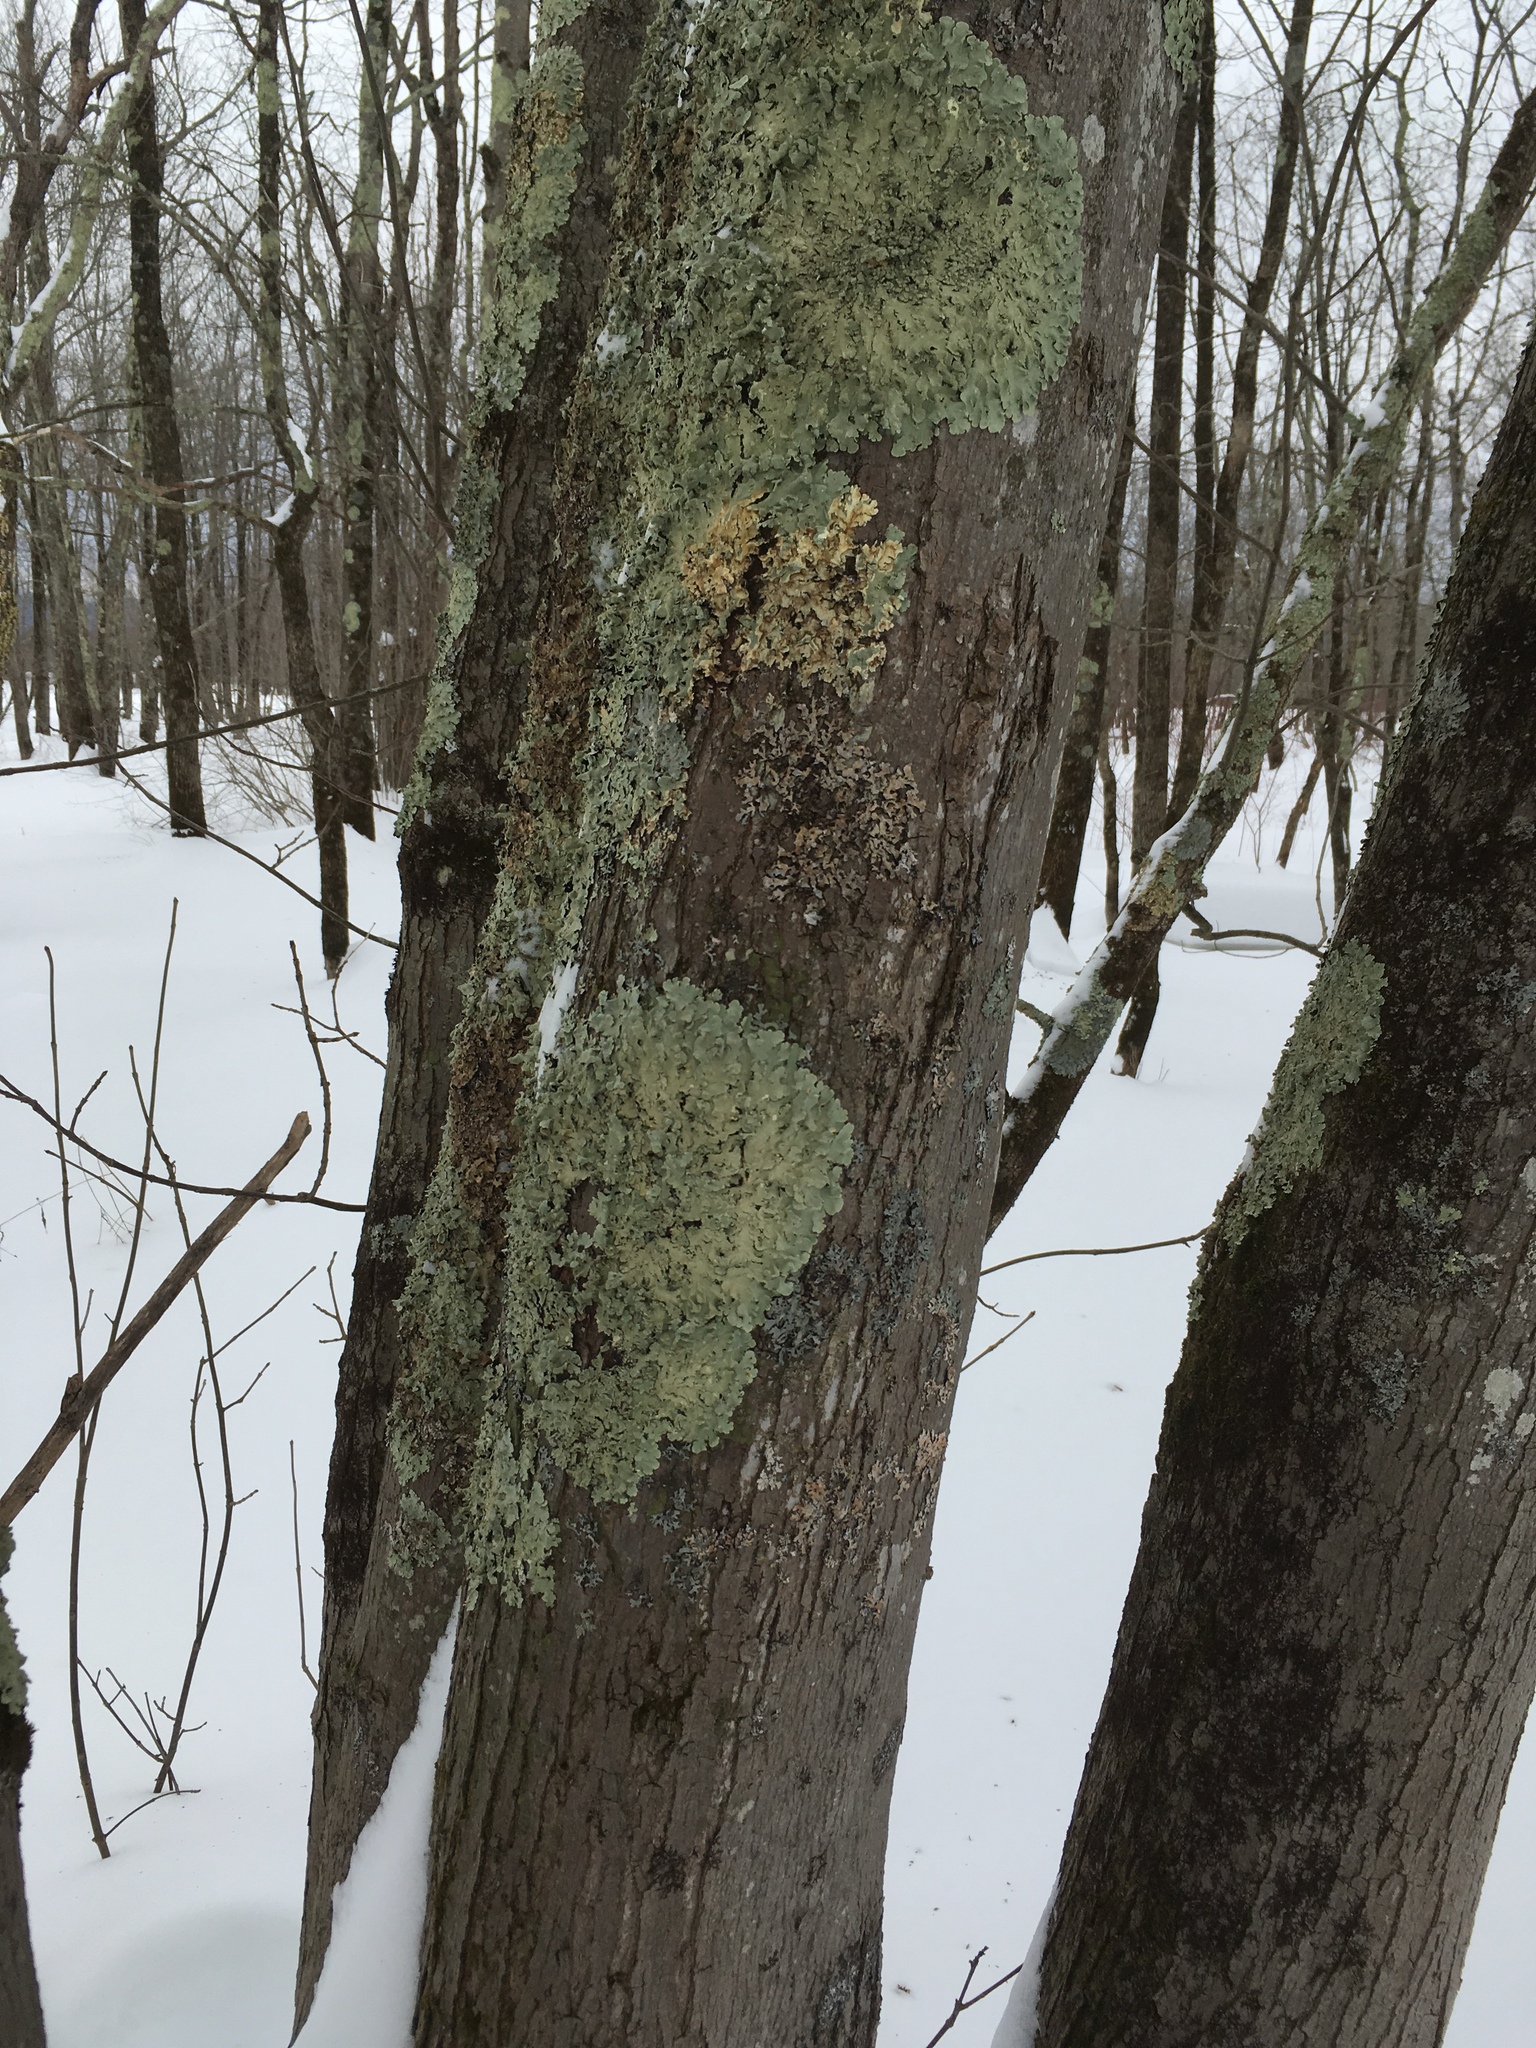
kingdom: Fungi
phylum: Ascomycota
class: Lecanoromycetes
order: Lecanorales
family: Parmeliaceae
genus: Flavoparmelia
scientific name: Flavoparmelia caperata
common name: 40-mile per hour lichen
